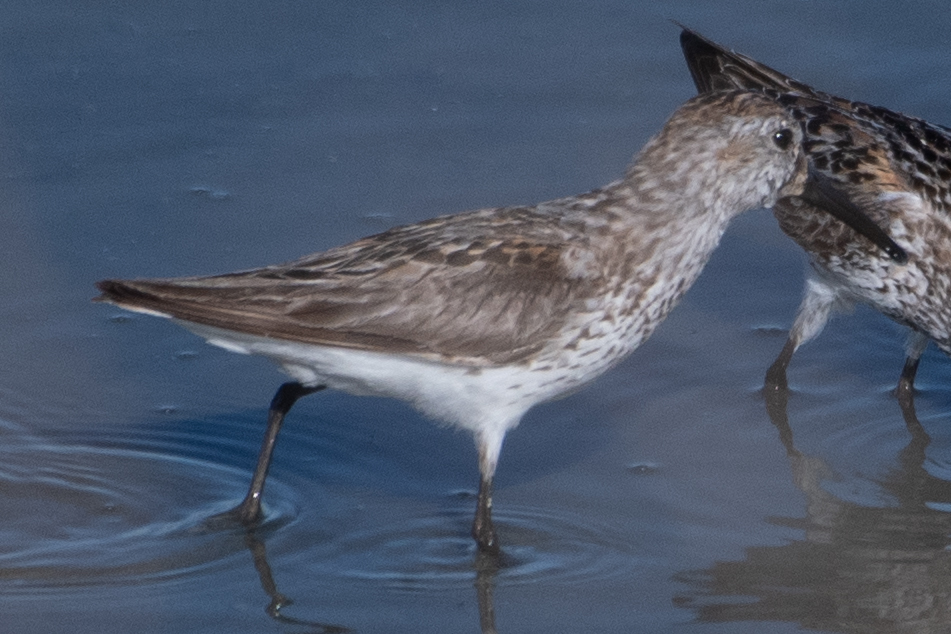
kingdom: Animalia
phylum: Chordata
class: Aves
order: Charadriiformes
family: Scolopacidae
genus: Calidris
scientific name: Calidris mauri
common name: Western sandpiper
